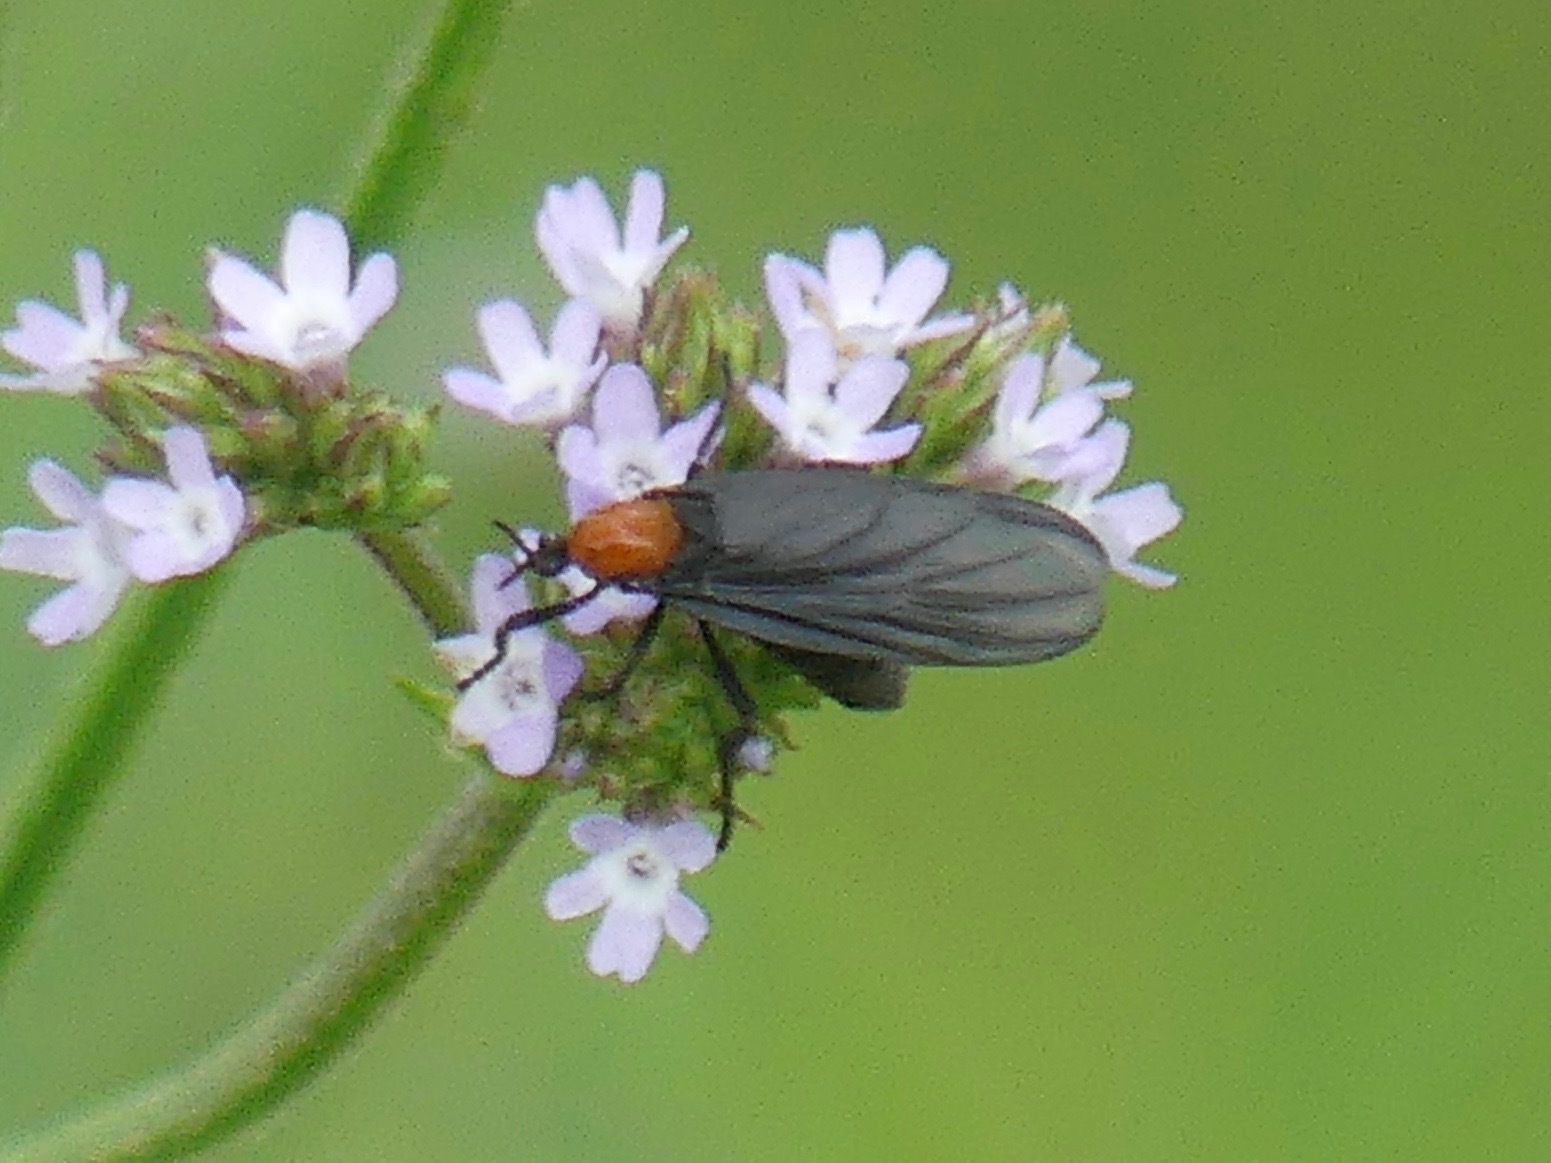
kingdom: Animalia
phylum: Arthropoda
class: Insecta
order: Diptera
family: Bibionidae
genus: Plecia
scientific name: Plecia nearctica
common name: March fly
